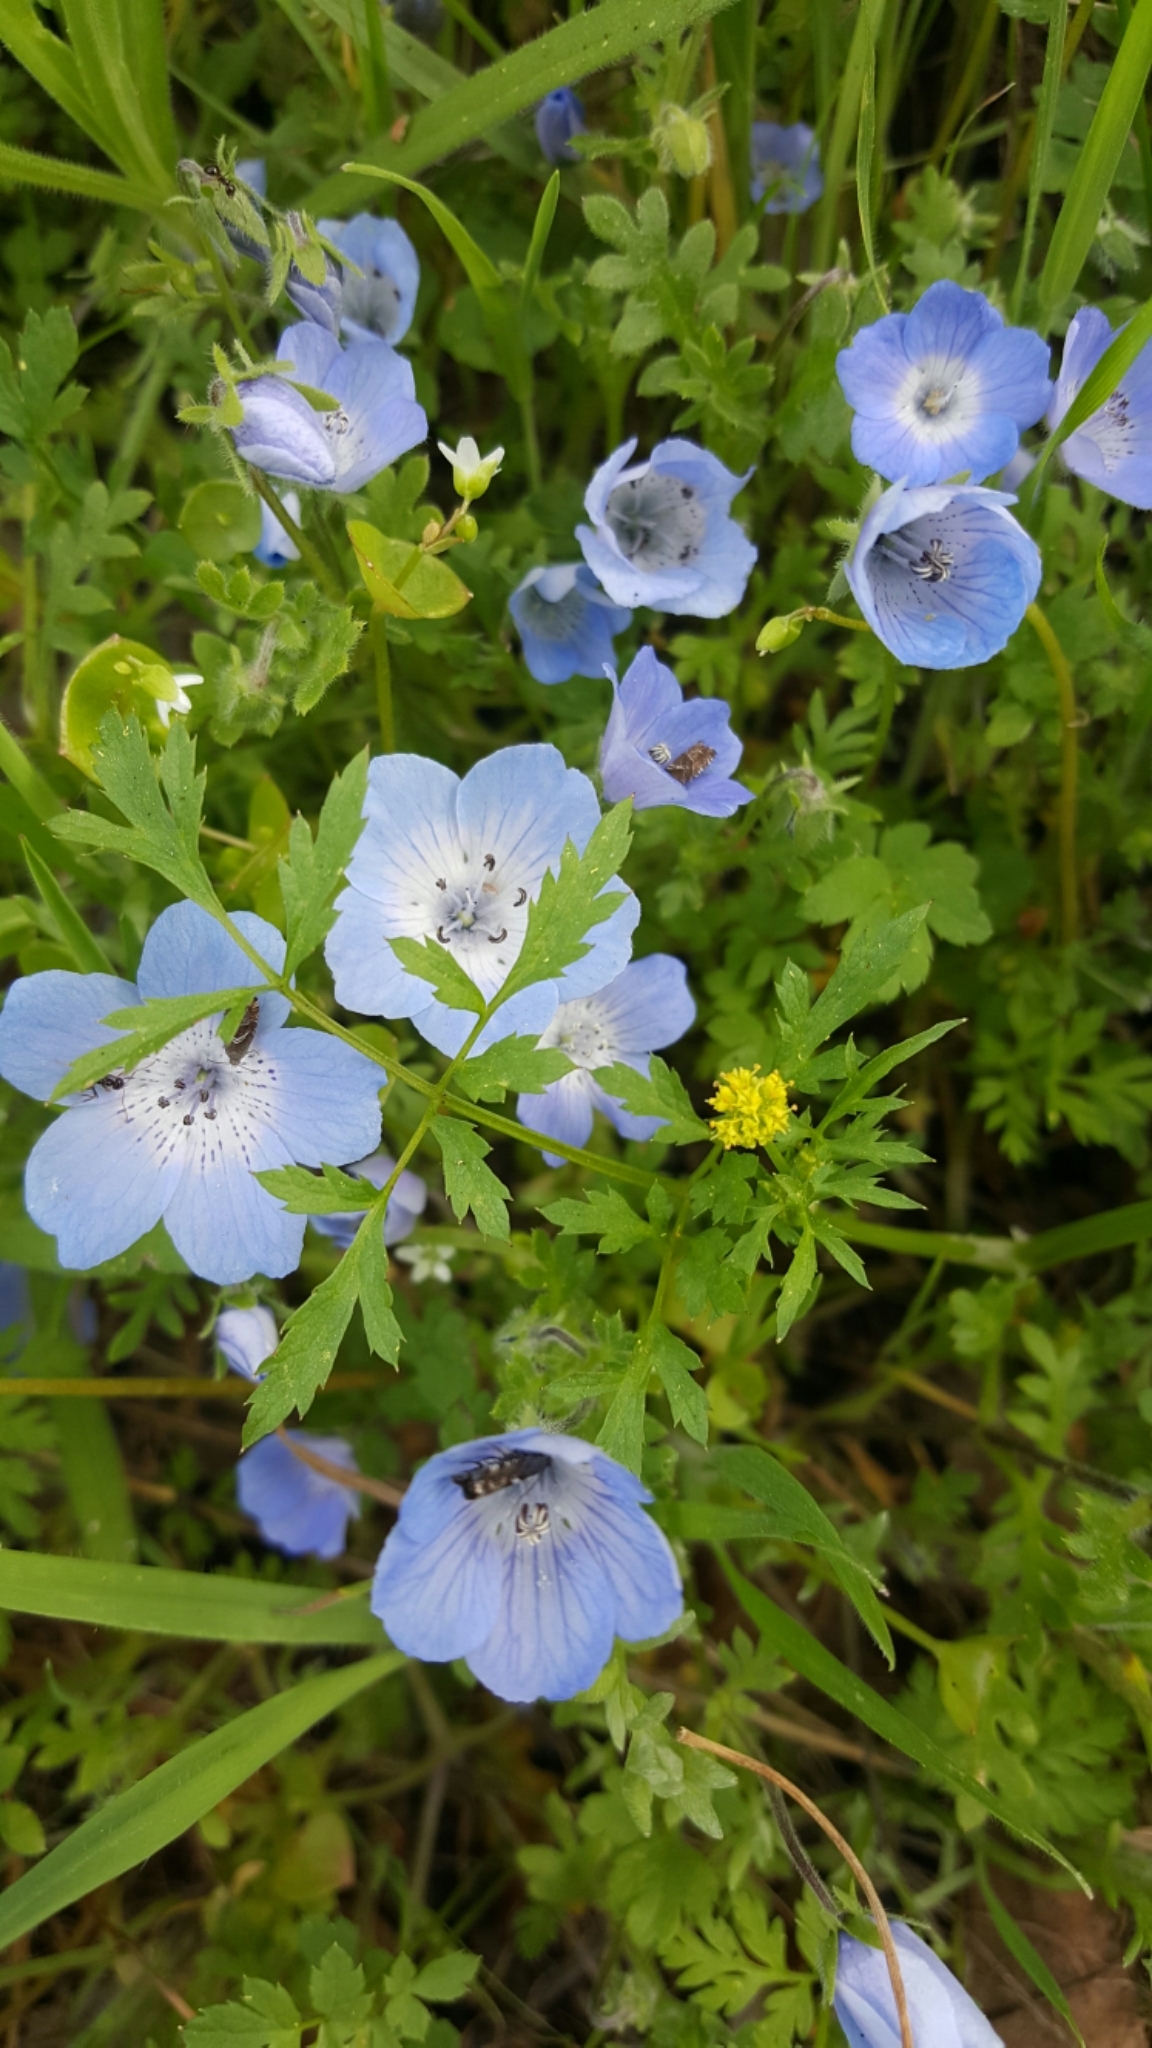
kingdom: Plantae
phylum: Tracheophyta
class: Magnoliopsida
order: Boraginales
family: Hydrophyllaceae
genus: Nemophila
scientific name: Nemophila menziesii
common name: Baby's-blue-eyes
